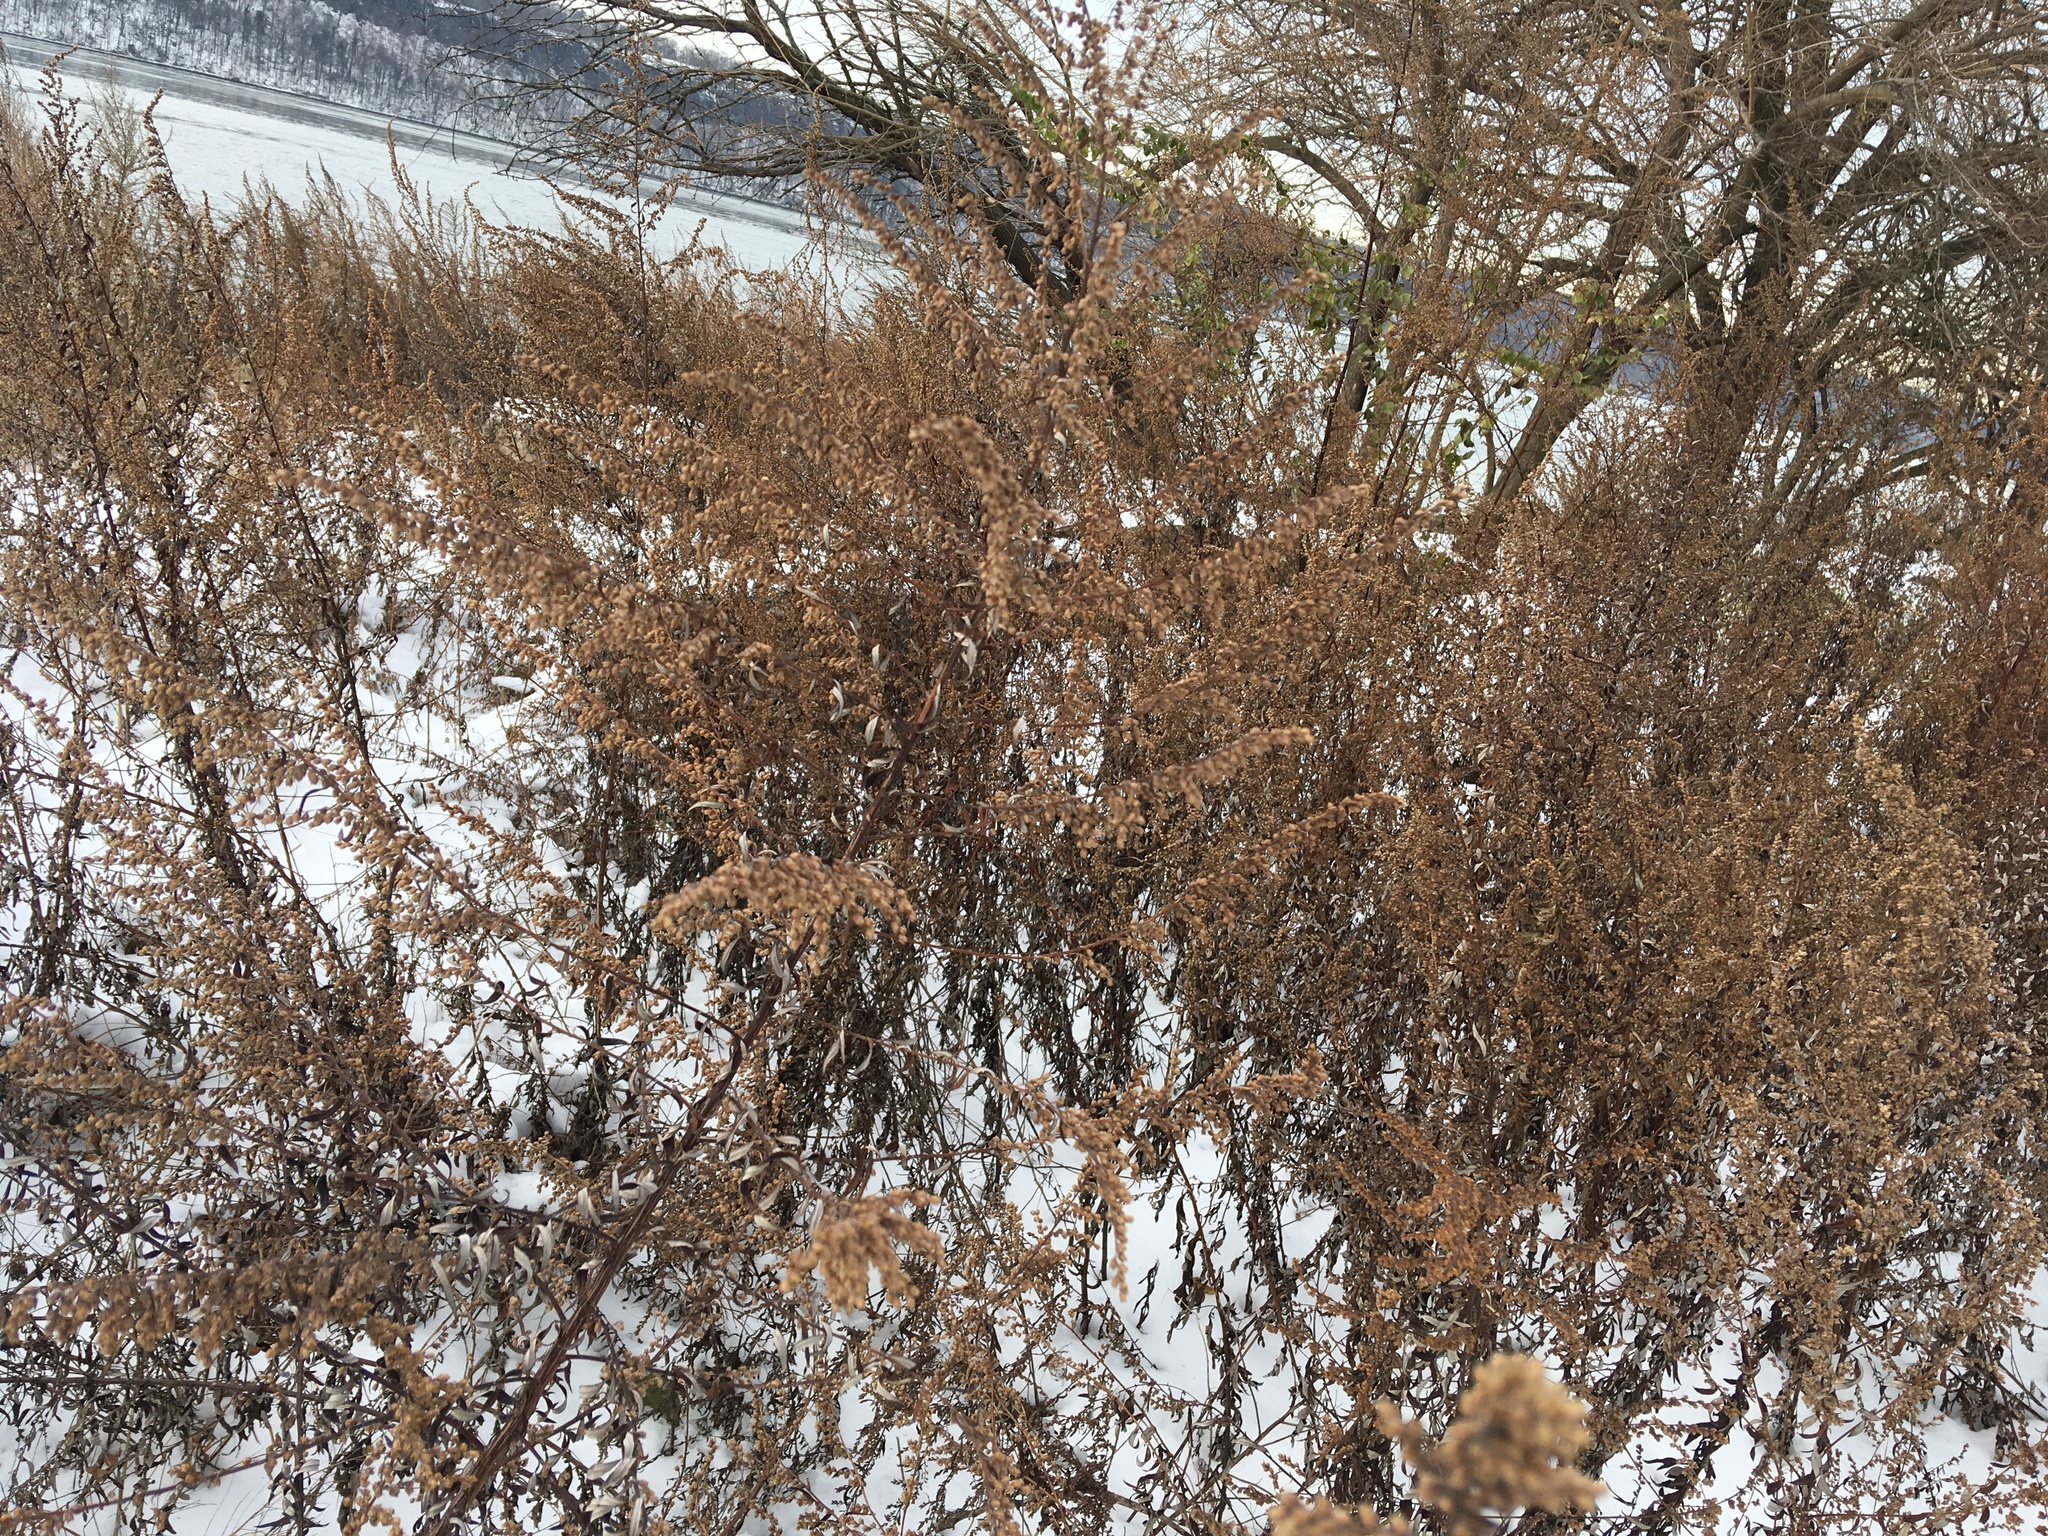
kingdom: Plantae
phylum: Tracheophyta
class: Magnoliopsida
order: Asterales
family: Asteraceae
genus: Artemisia
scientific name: Artemisia vulgaris
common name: Mugwort
